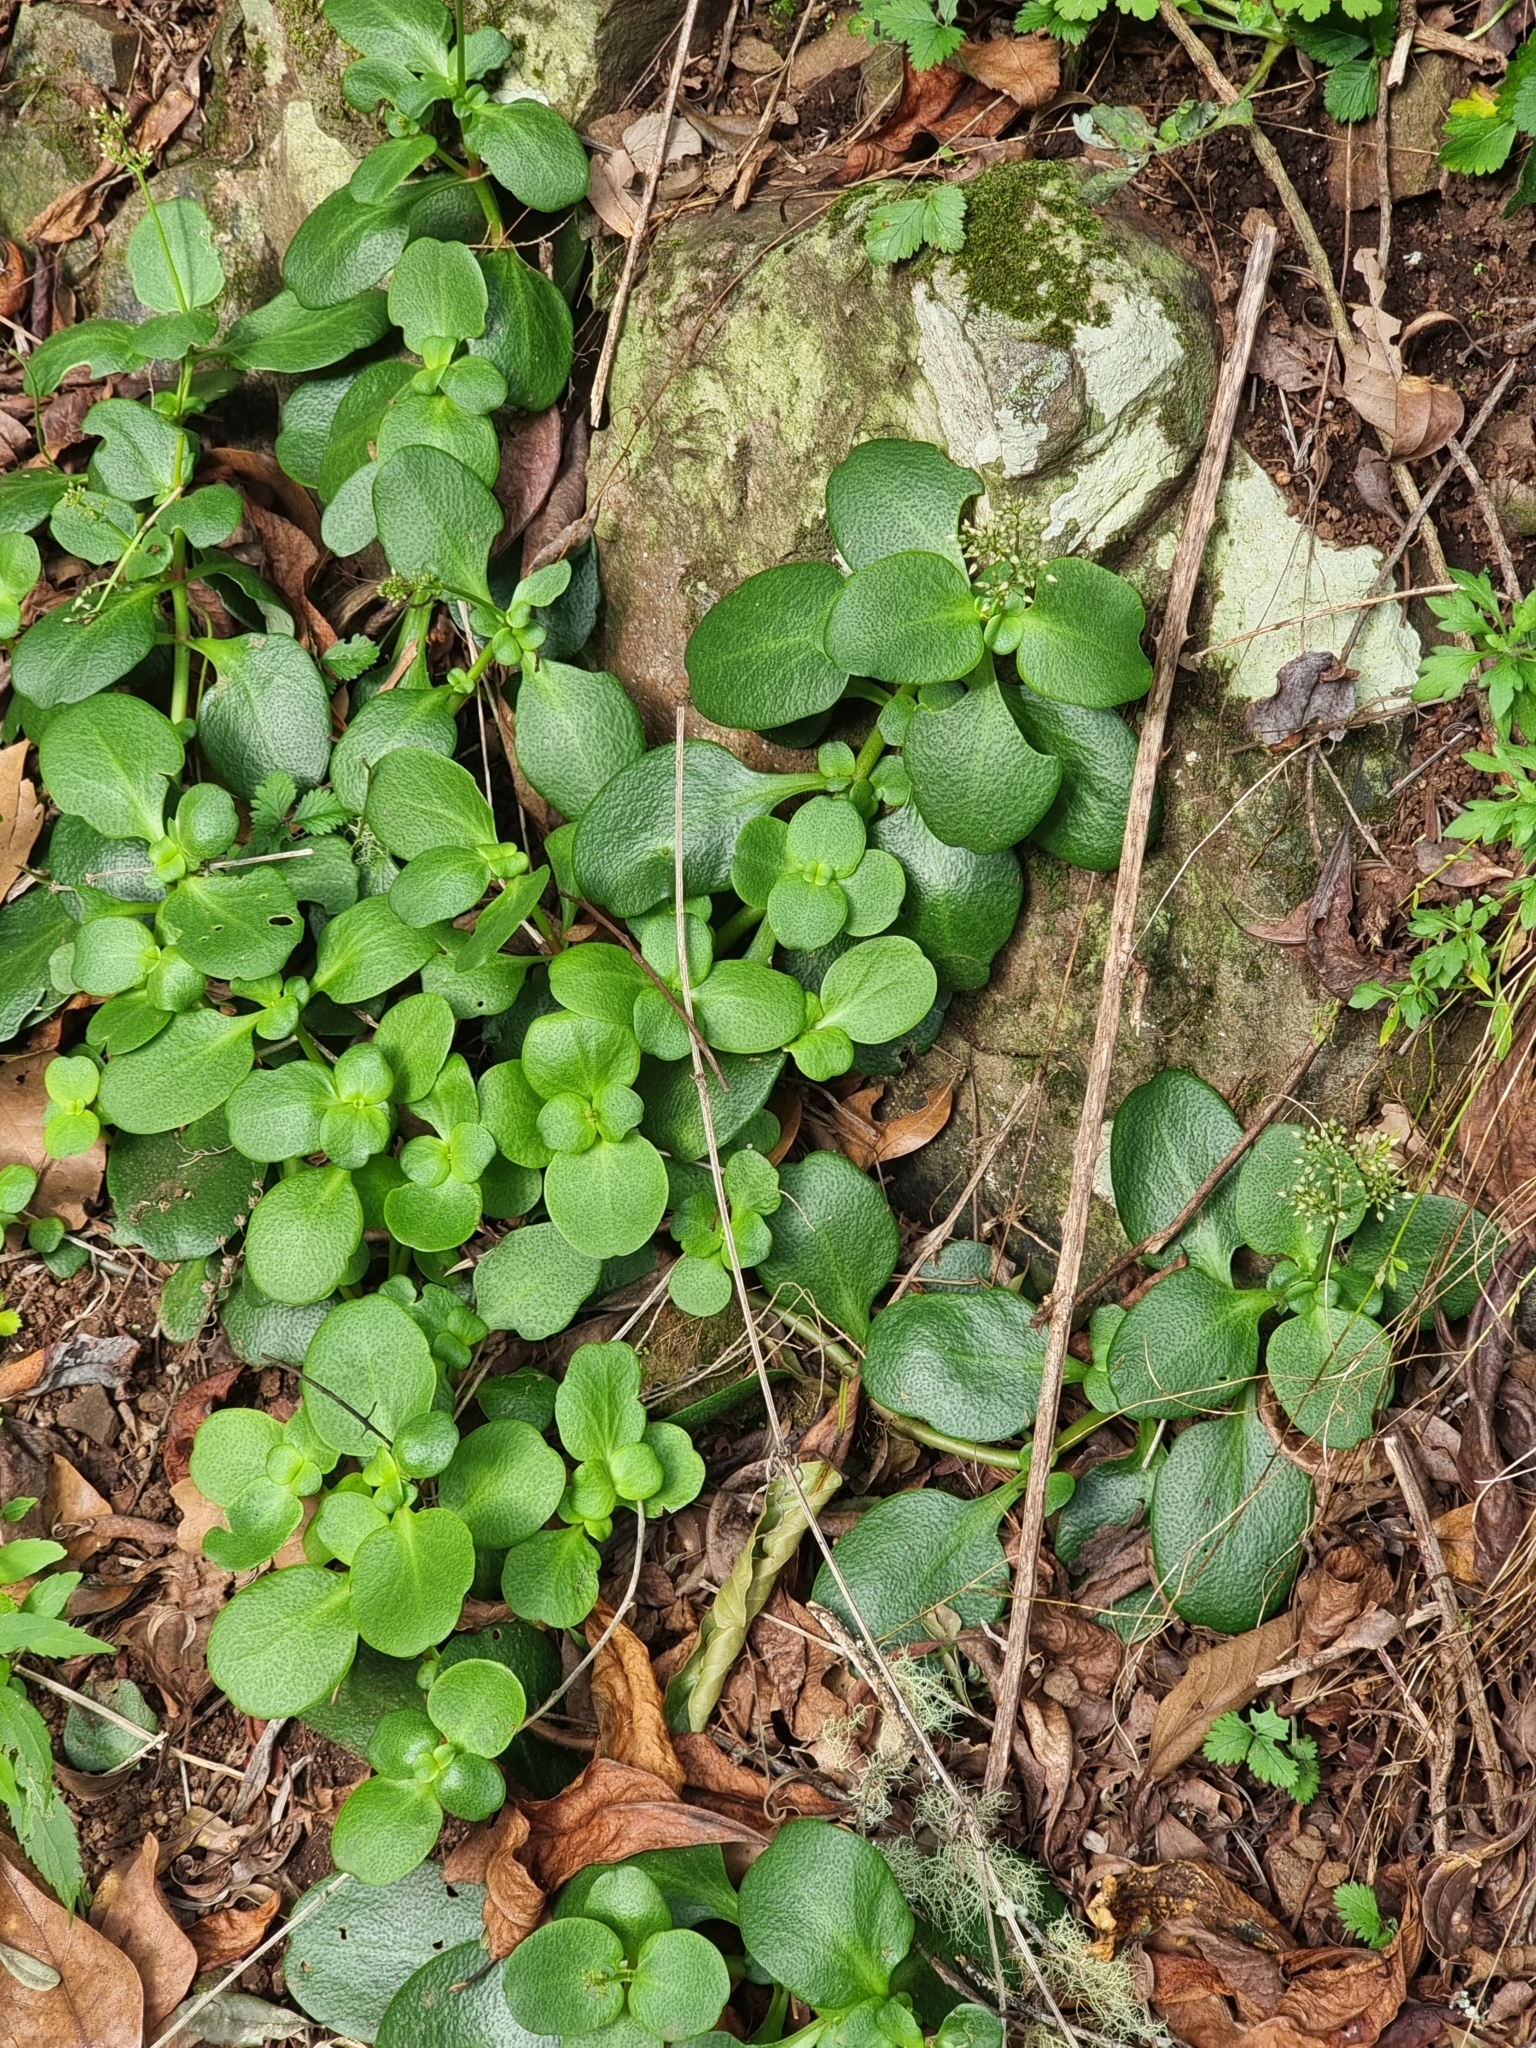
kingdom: Plantae
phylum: Tracheophyta
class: Magnoliopsida
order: Saxifragales
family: Crassulaceae
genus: Crassula
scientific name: Crassula multicava
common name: Cape province pygmyweed
